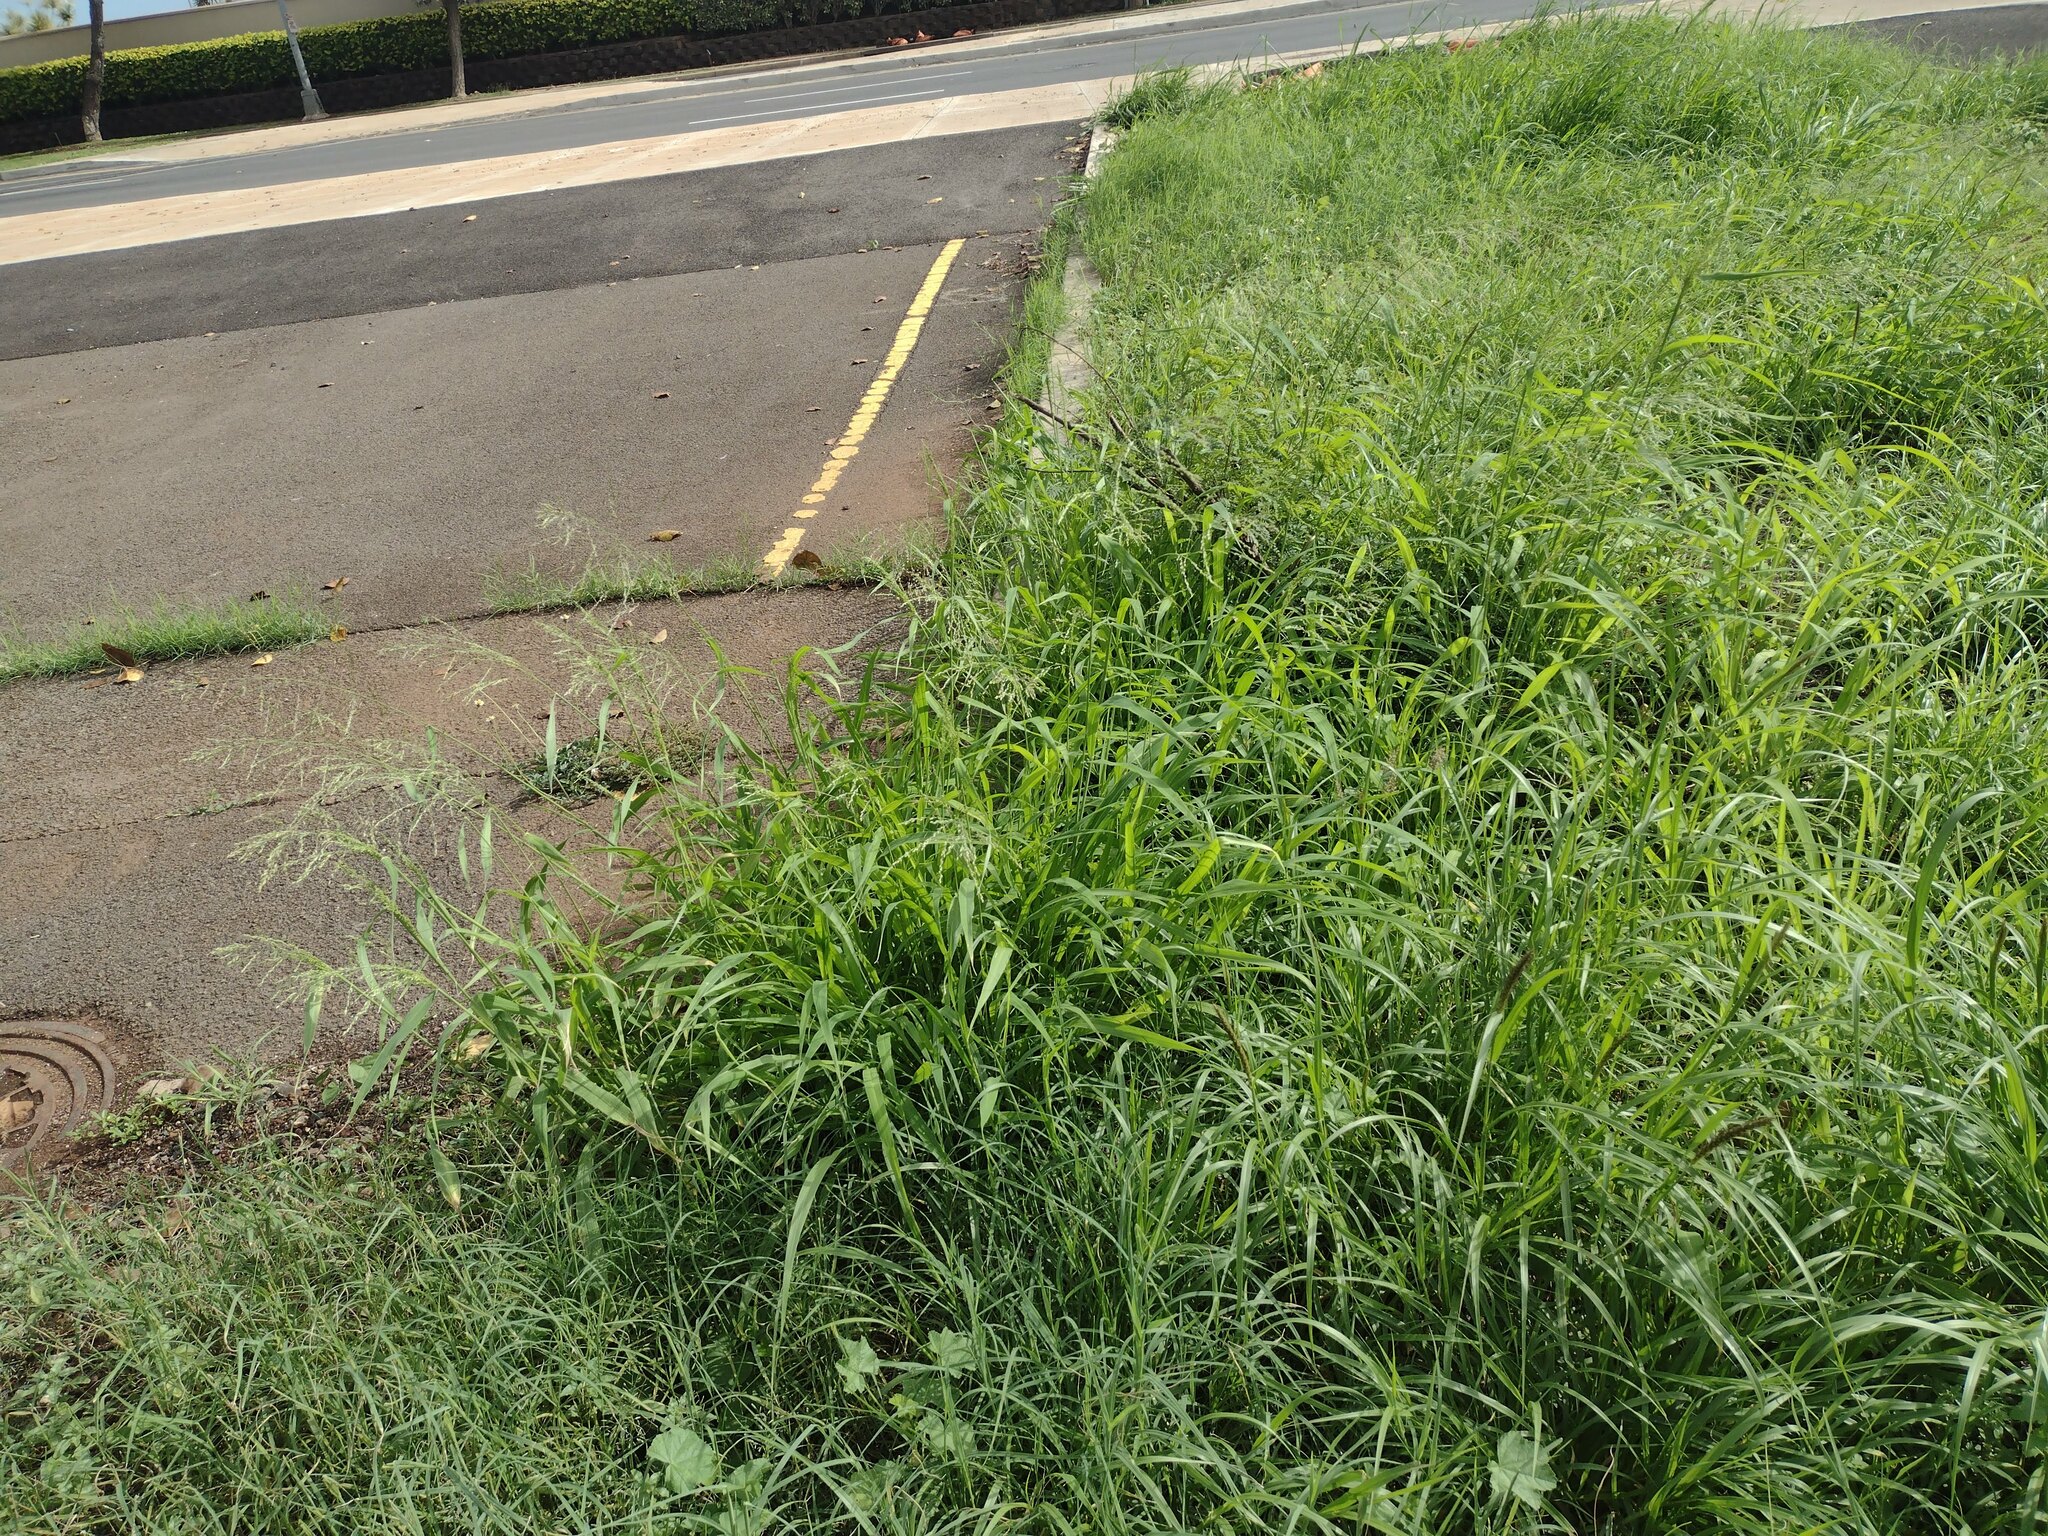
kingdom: Plantae
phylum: Tracheophyta
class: Liliopsida
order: Poales
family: Poaceae
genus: Megathyrsus
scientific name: Megathyrsus maximus
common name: Guineagrass
